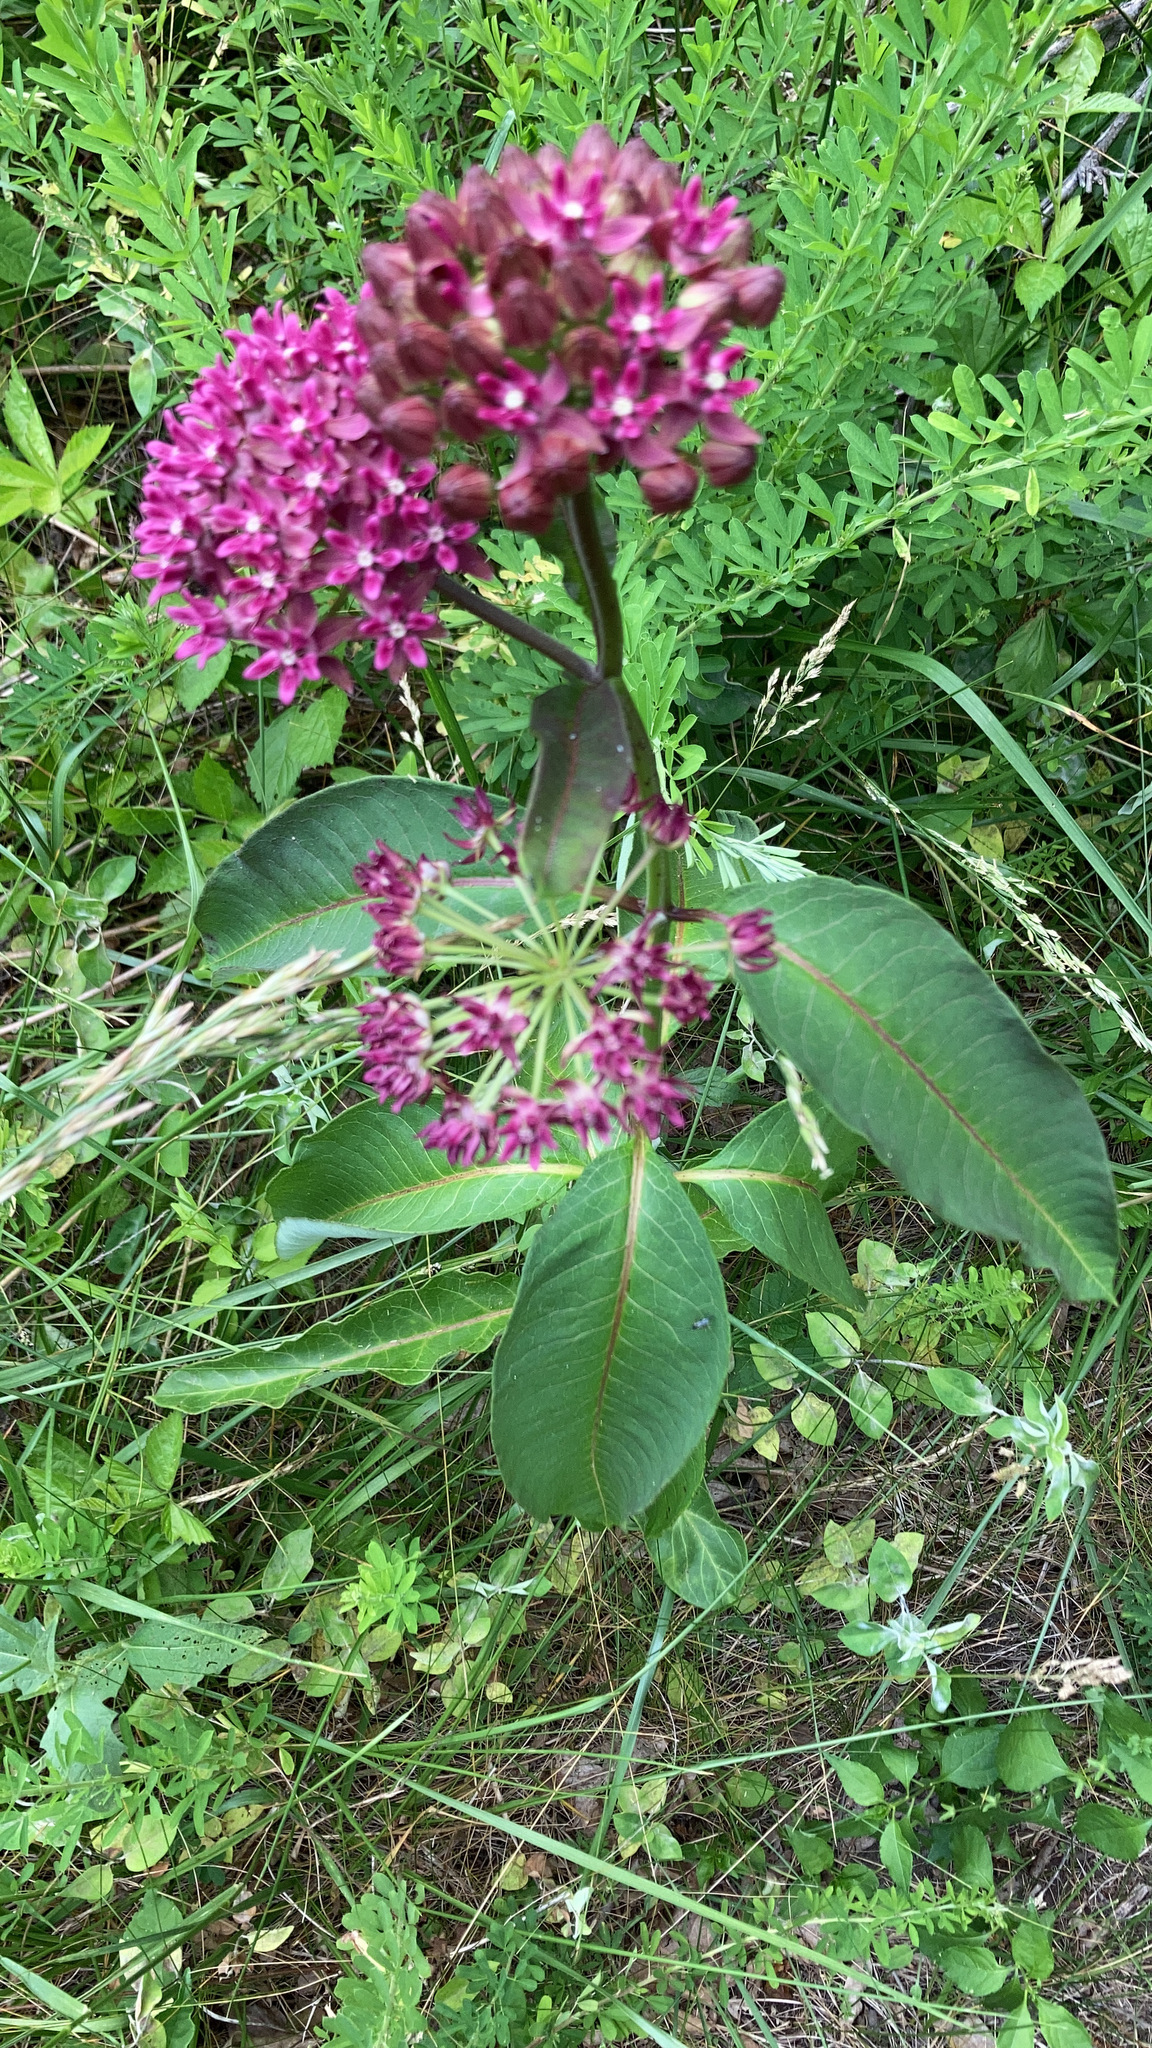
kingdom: Plantae
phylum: Tracheophyta
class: Magnoliopsida
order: Gentianales
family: Apocynaceae
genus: Asclepias
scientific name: Asclepias purpurascens
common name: Purple milkweed
